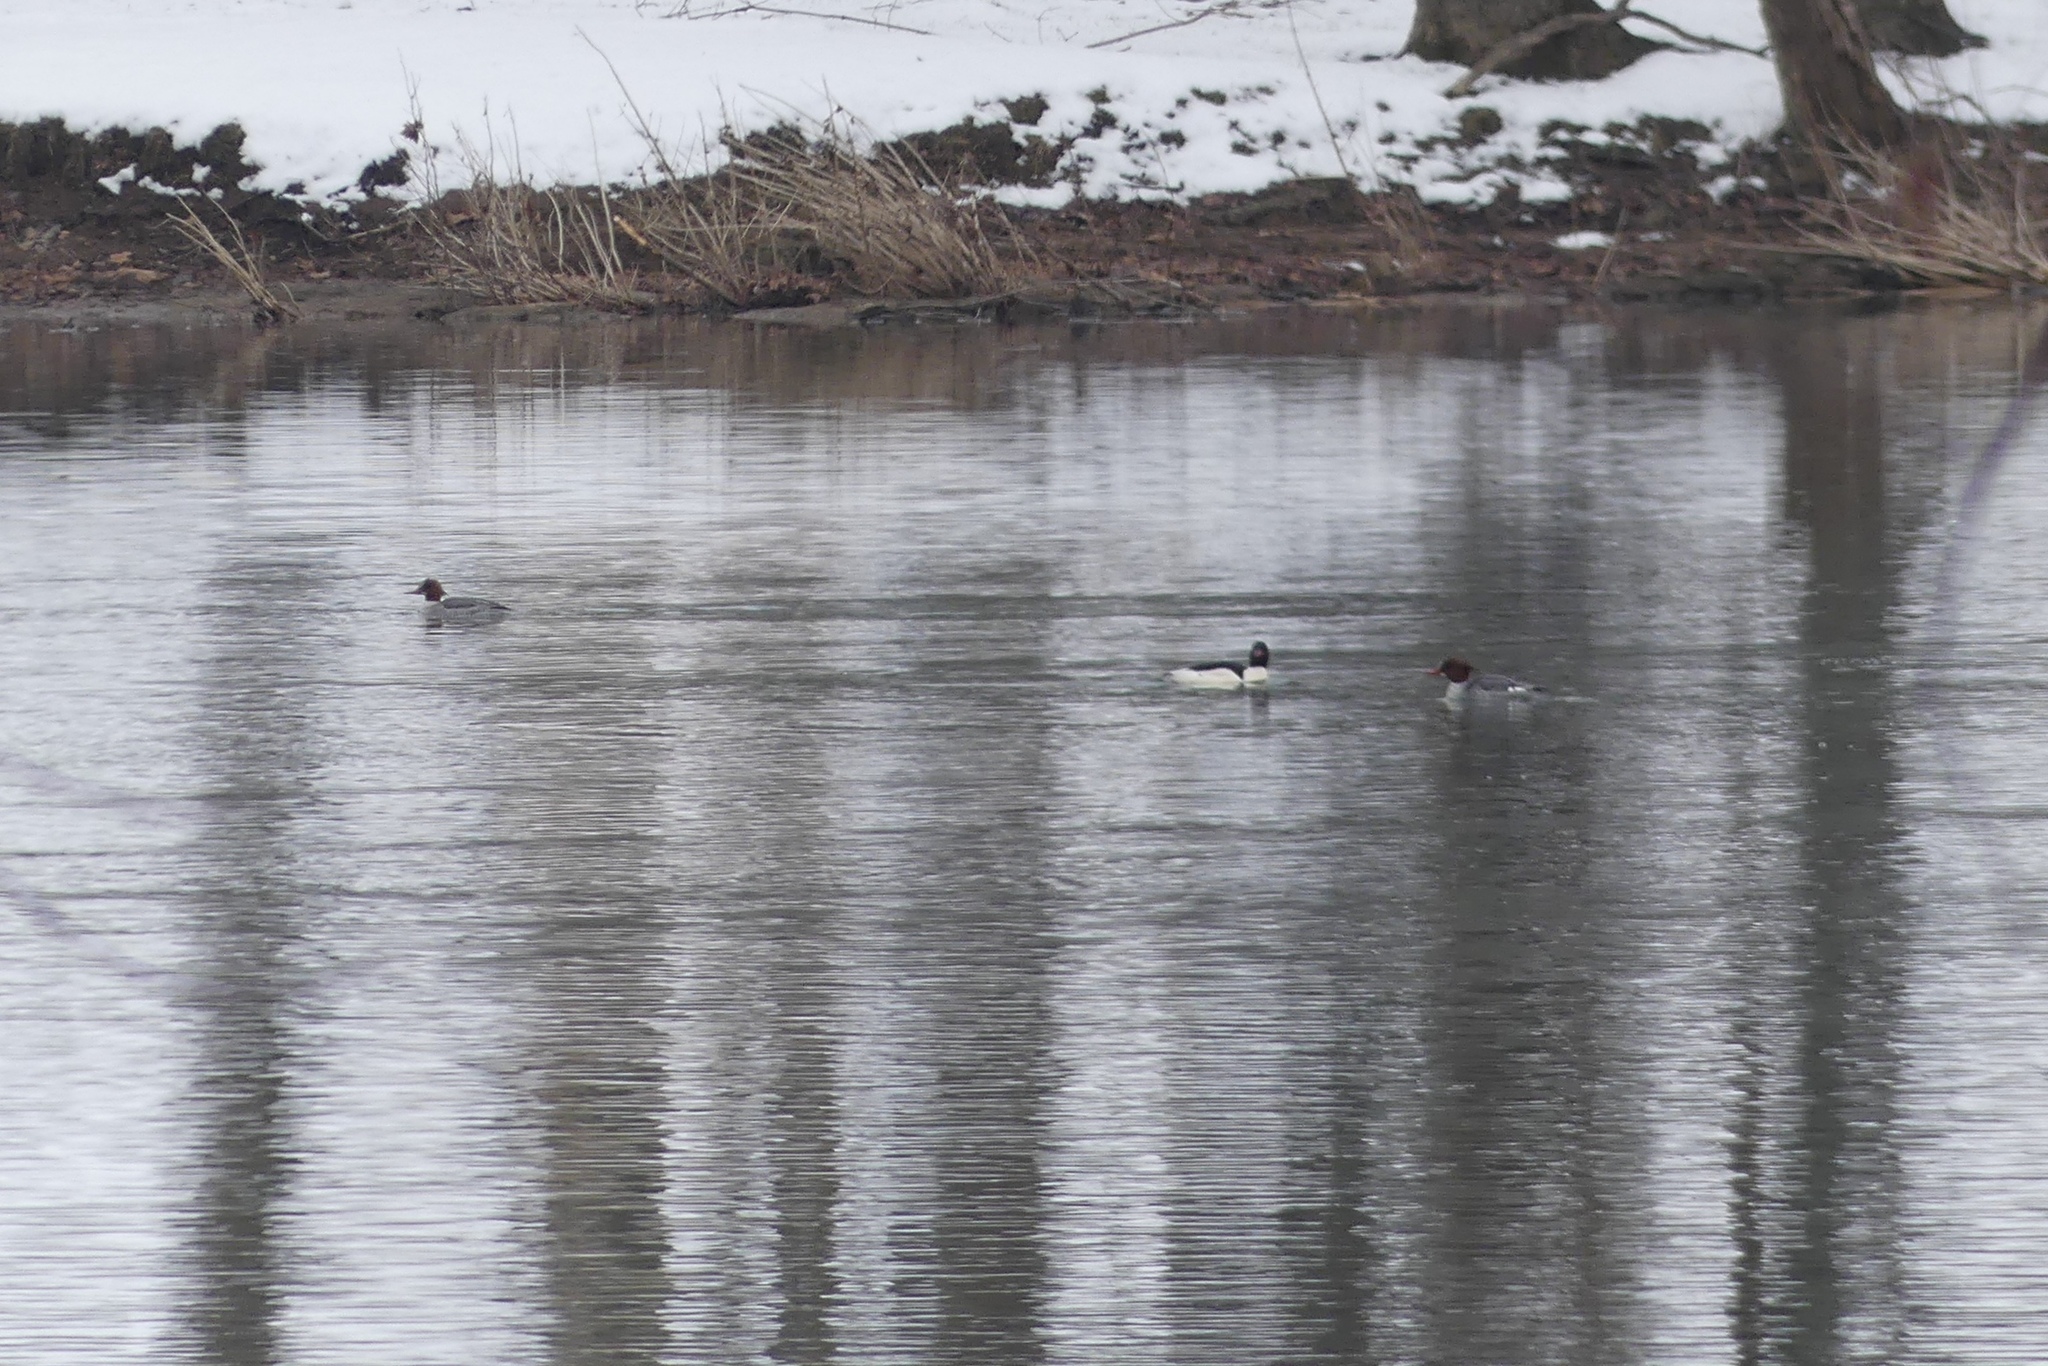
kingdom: Animalia
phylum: Chordata
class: Aves
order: Anseriformes
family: Anatidae
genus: Mergus
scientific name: Mergus merganser
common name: Common merganser
